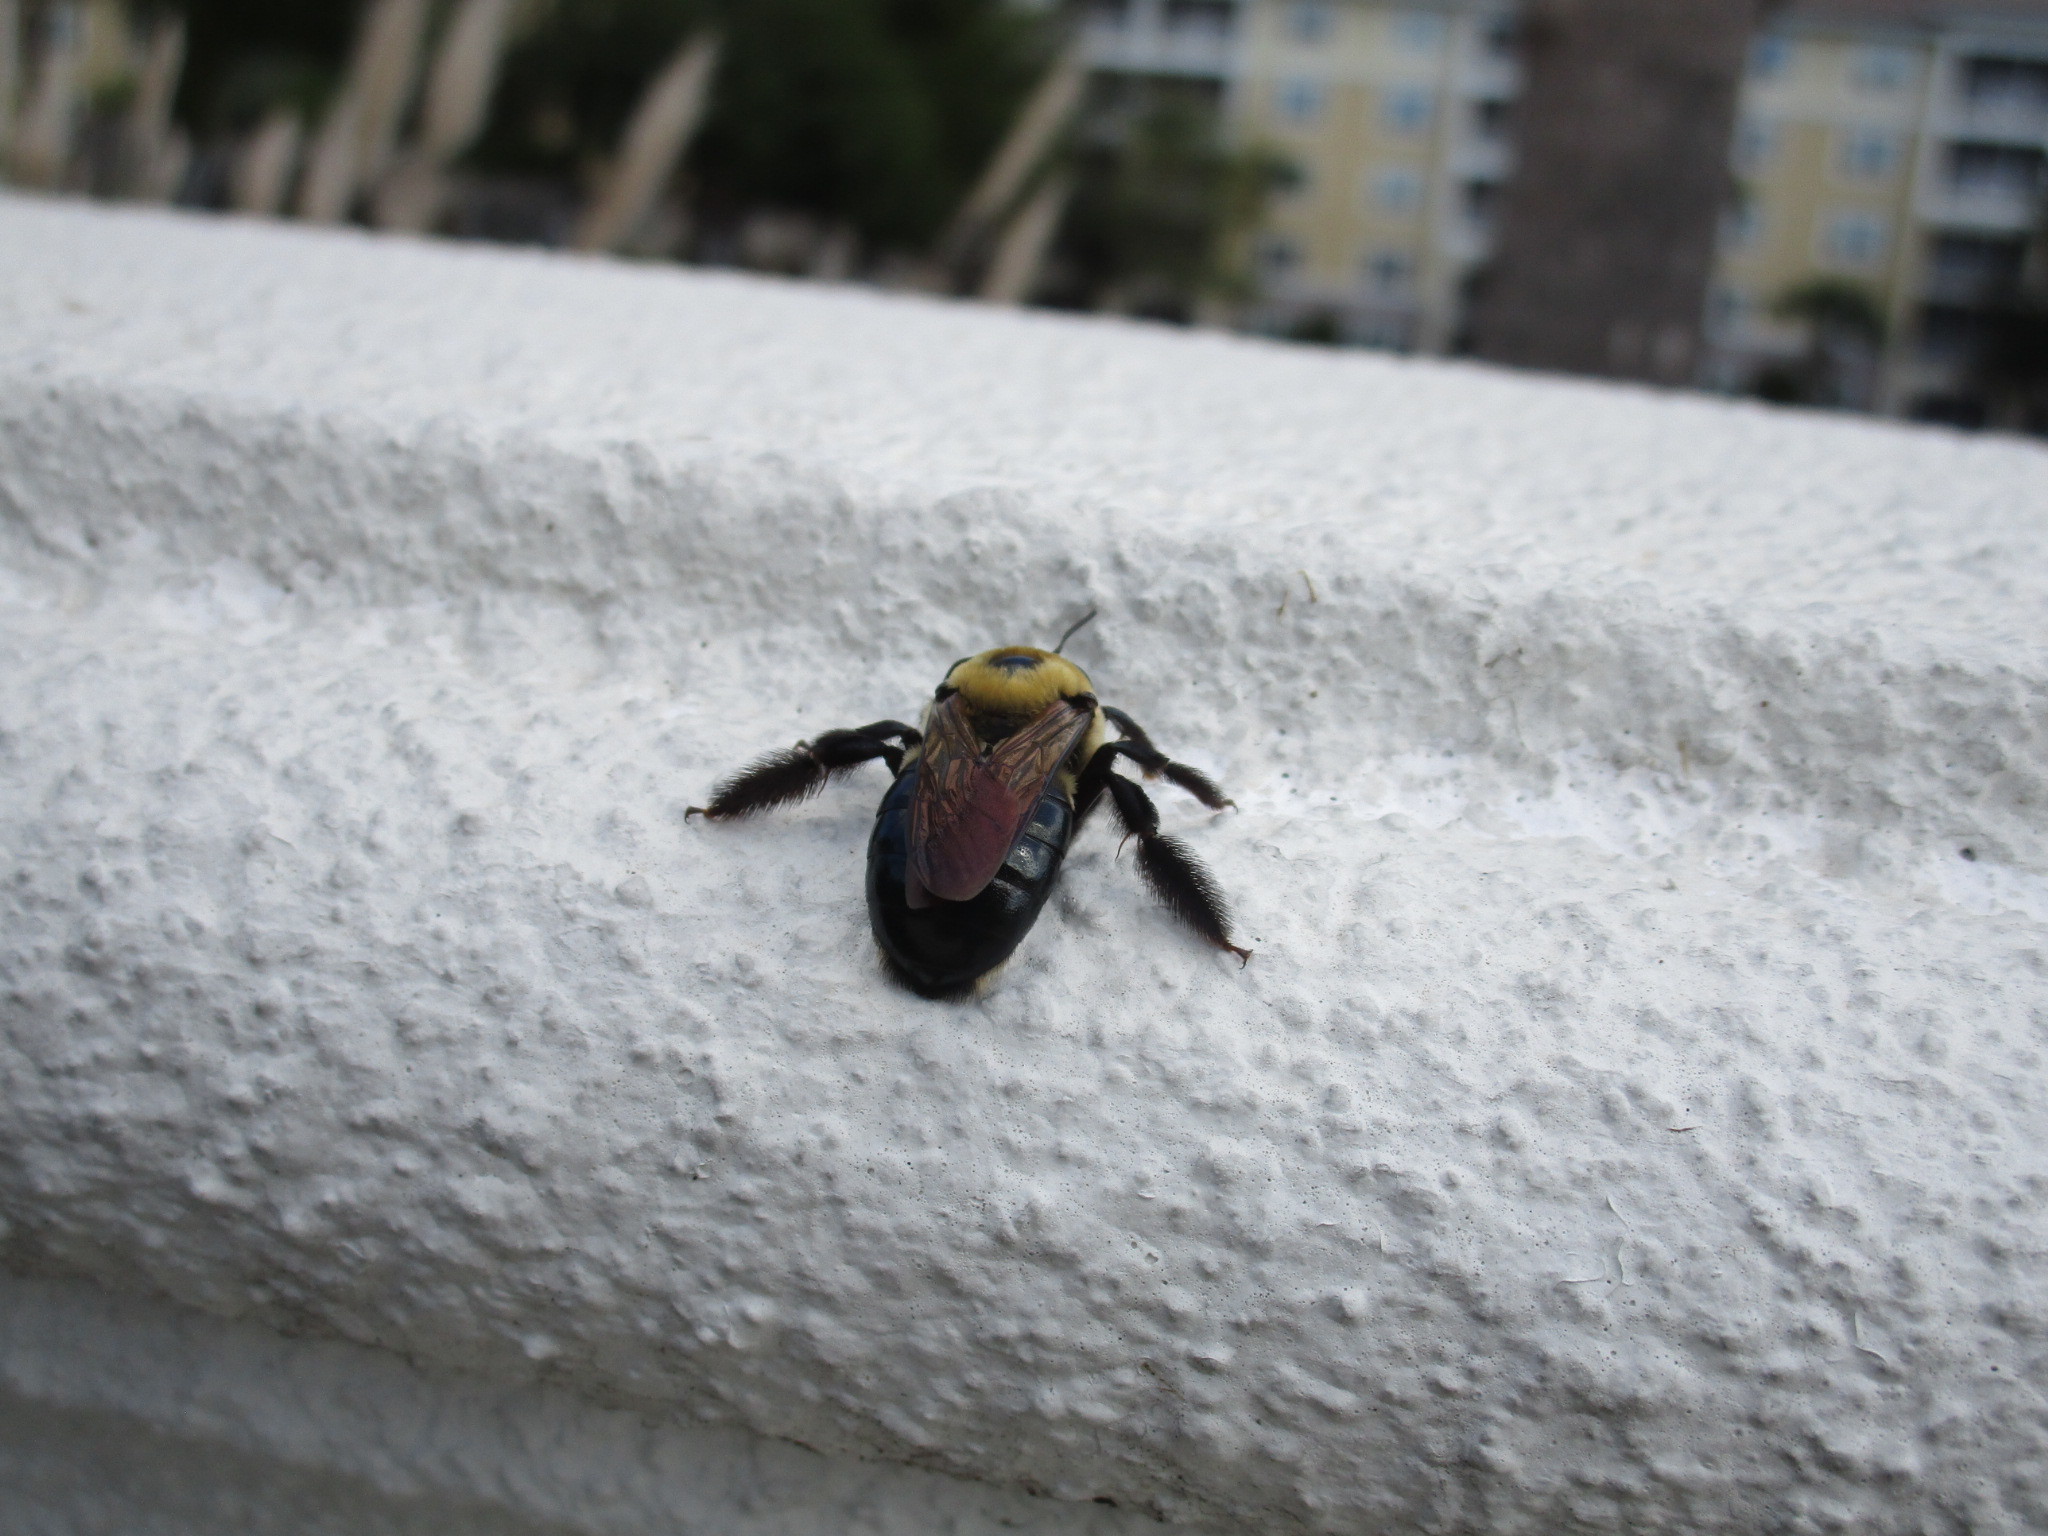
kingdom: Animalia
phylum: Arthropoda
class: Insecta
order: Hymenoptera
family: Apidae
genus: Xylocopa
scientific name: Xylocopa virginica
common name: Carpenter bee
